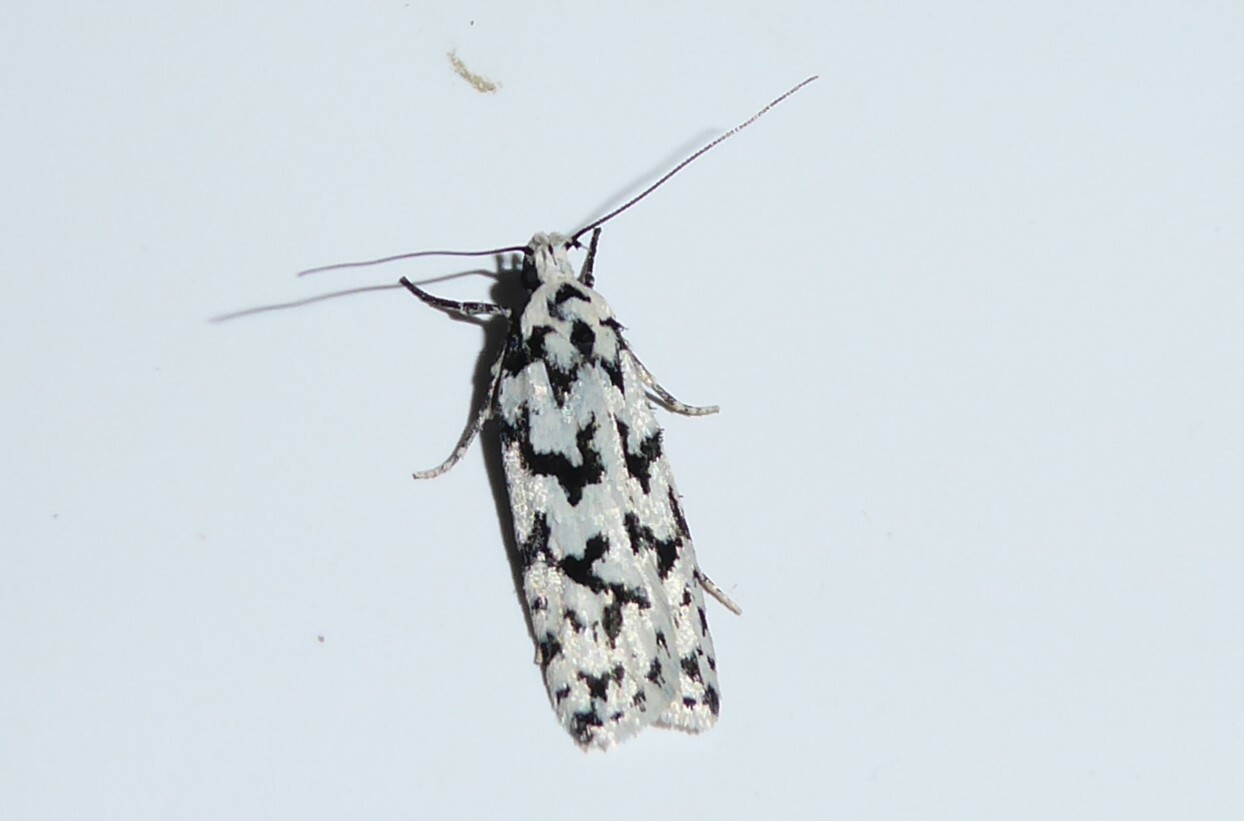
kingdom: Animalia
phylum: Arthropoda
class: Insecta
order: Lepidoptera
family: Oecophoridae
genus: Izatha
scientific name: Izatha katadiktya
